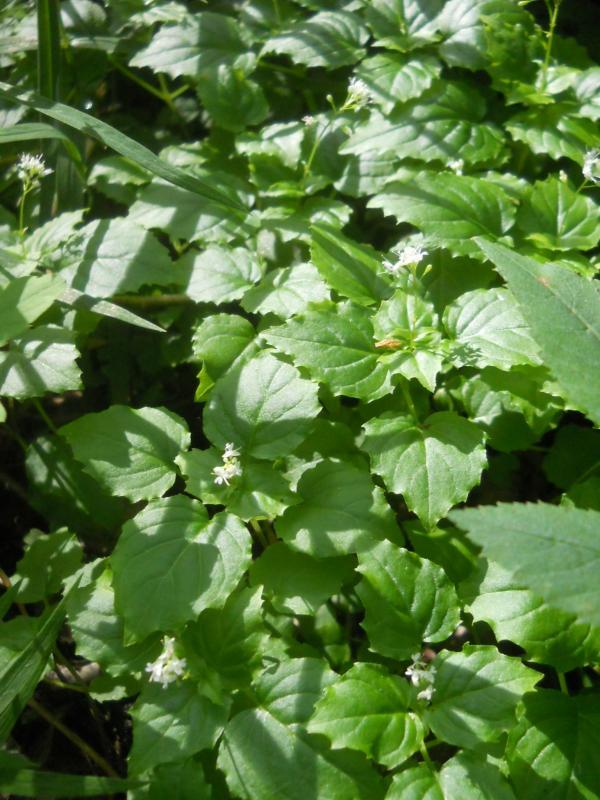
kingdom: Plantae
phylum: Tracheophyta
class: Magnoliopsida
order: Myrtales
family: Onagraceae
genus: Circaea
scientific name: Circaea alpina
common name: Alpine enchanter's-nightshade
